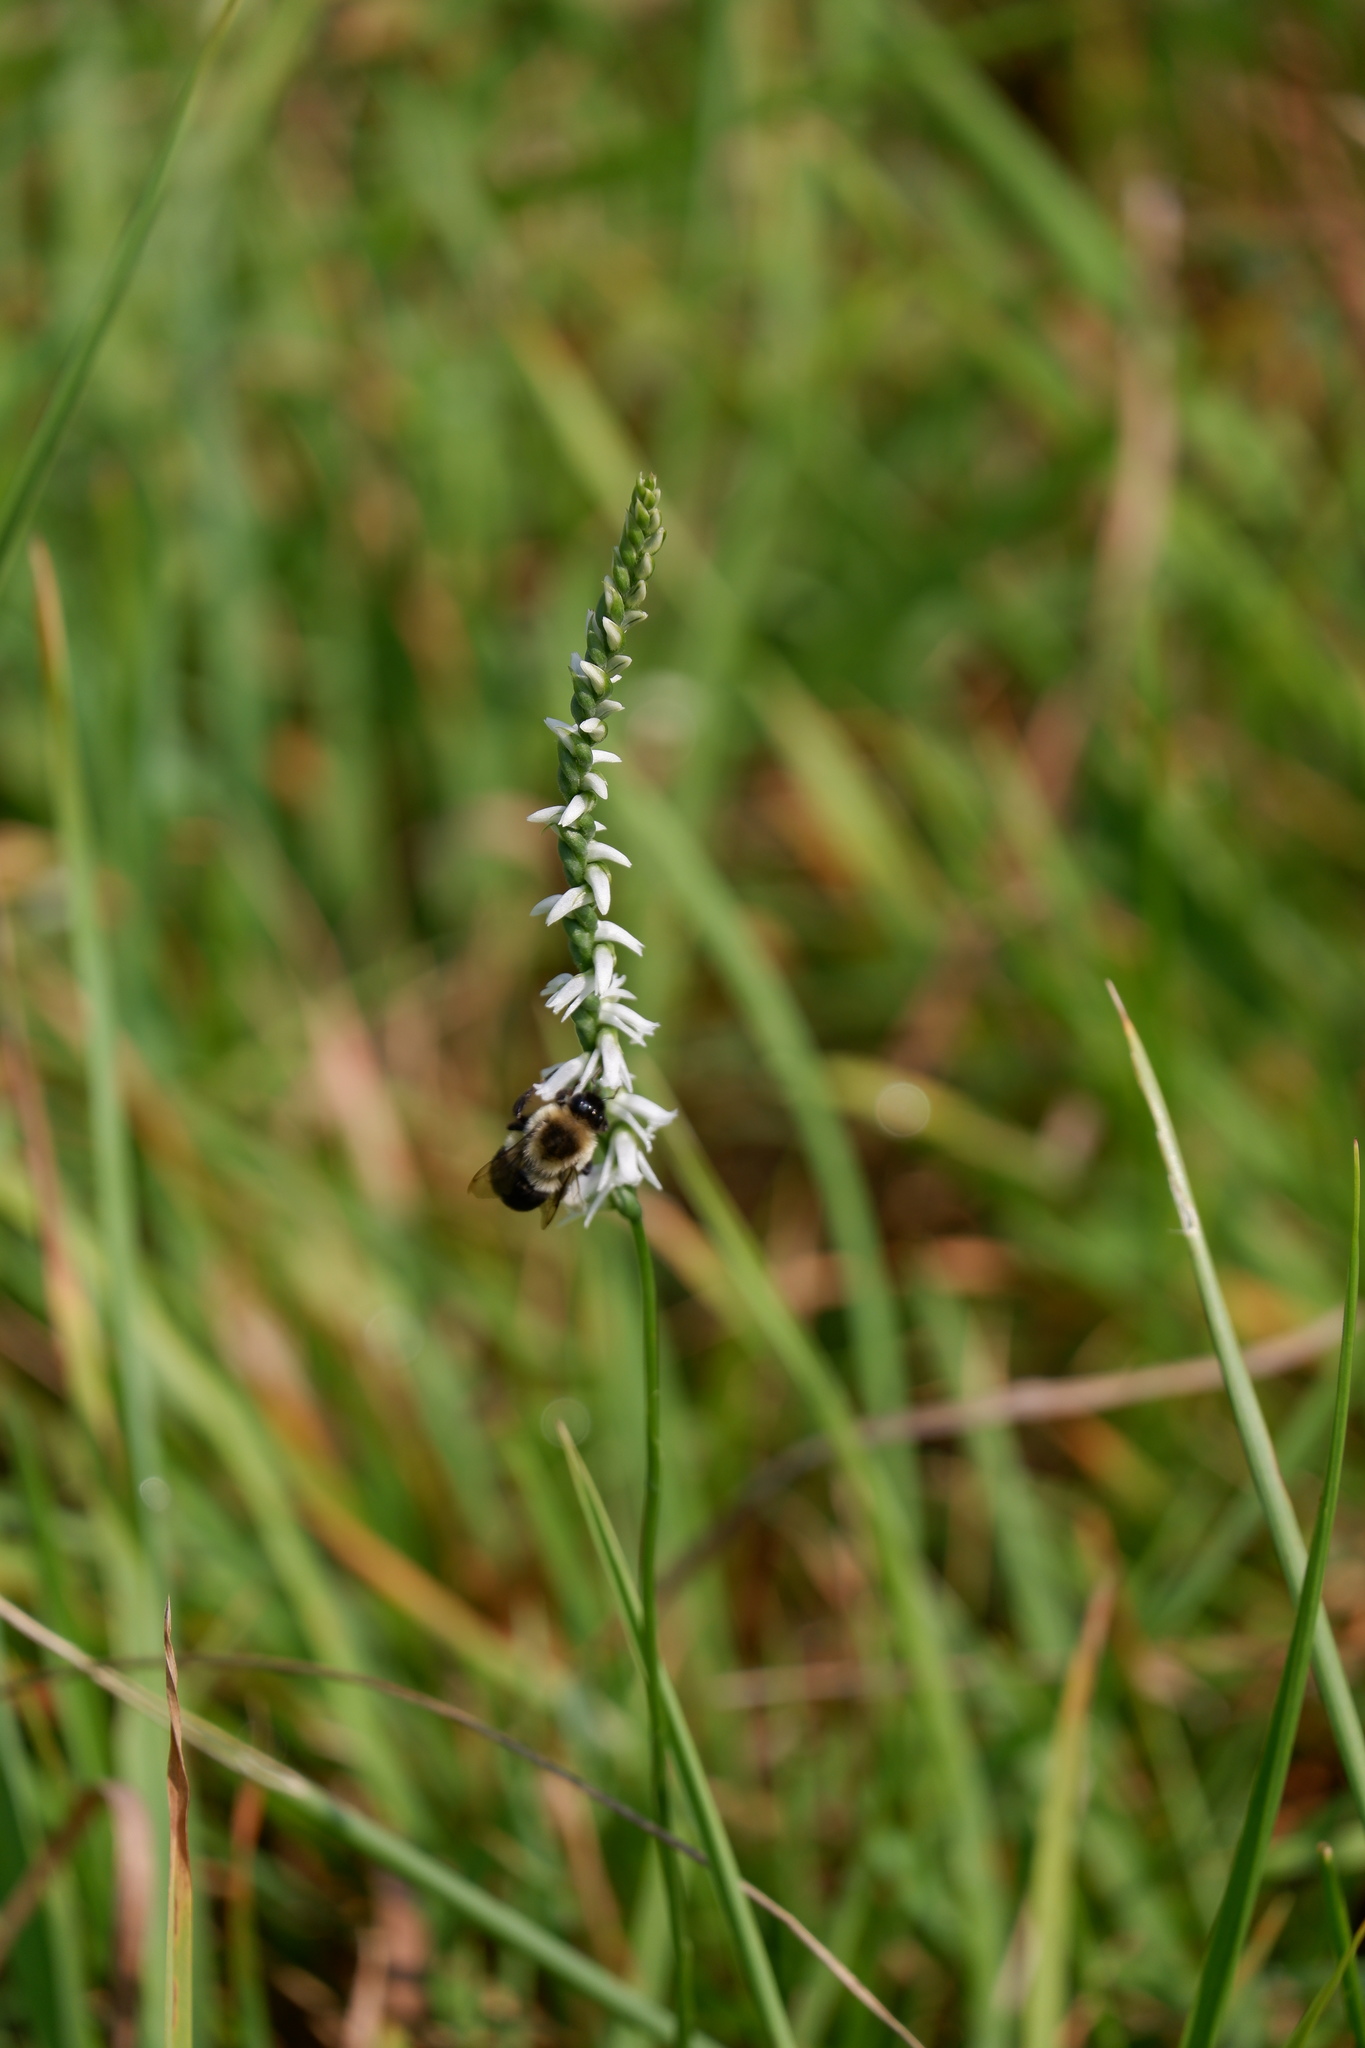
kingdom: Animalia
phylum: Arthropoda
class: Insecta
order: Hymenoptera
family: Apidae
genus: Bombus
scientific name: Bombus impatiens
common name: Common eastern bumble bee
